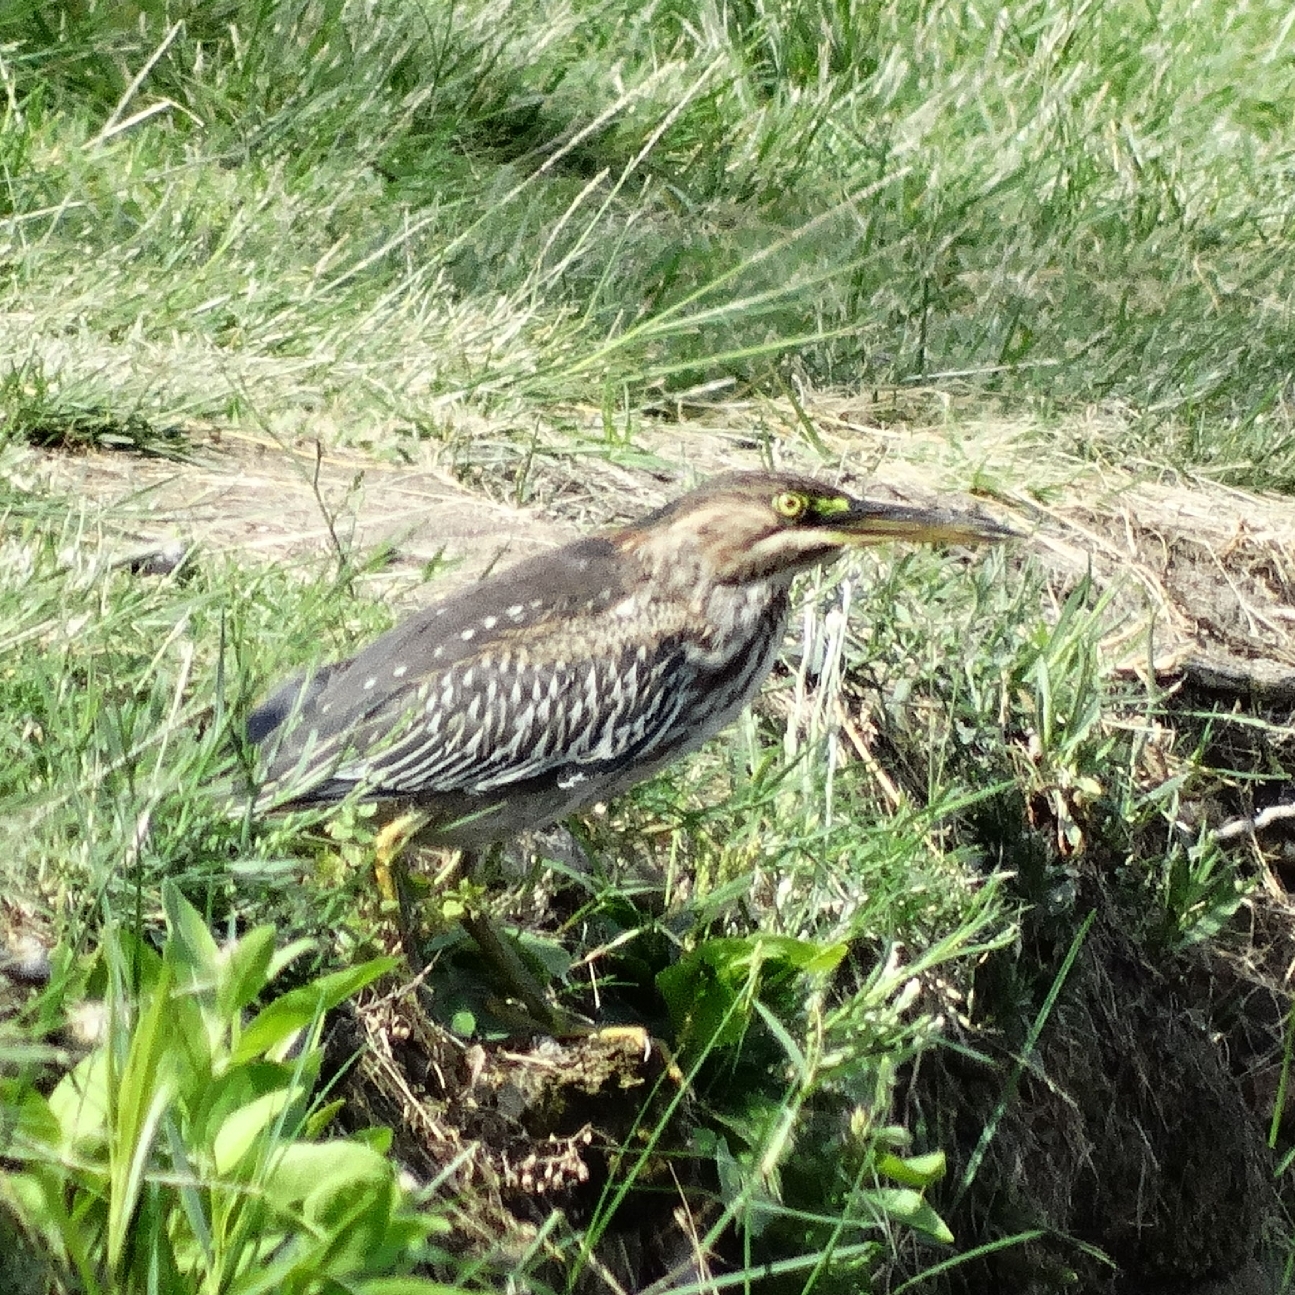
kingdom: Animalia
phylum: Chordata
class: Aves
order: Pelecaniformes
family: Ardeidae
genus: Butorides
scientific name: Butorides virescens
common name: Green heron
